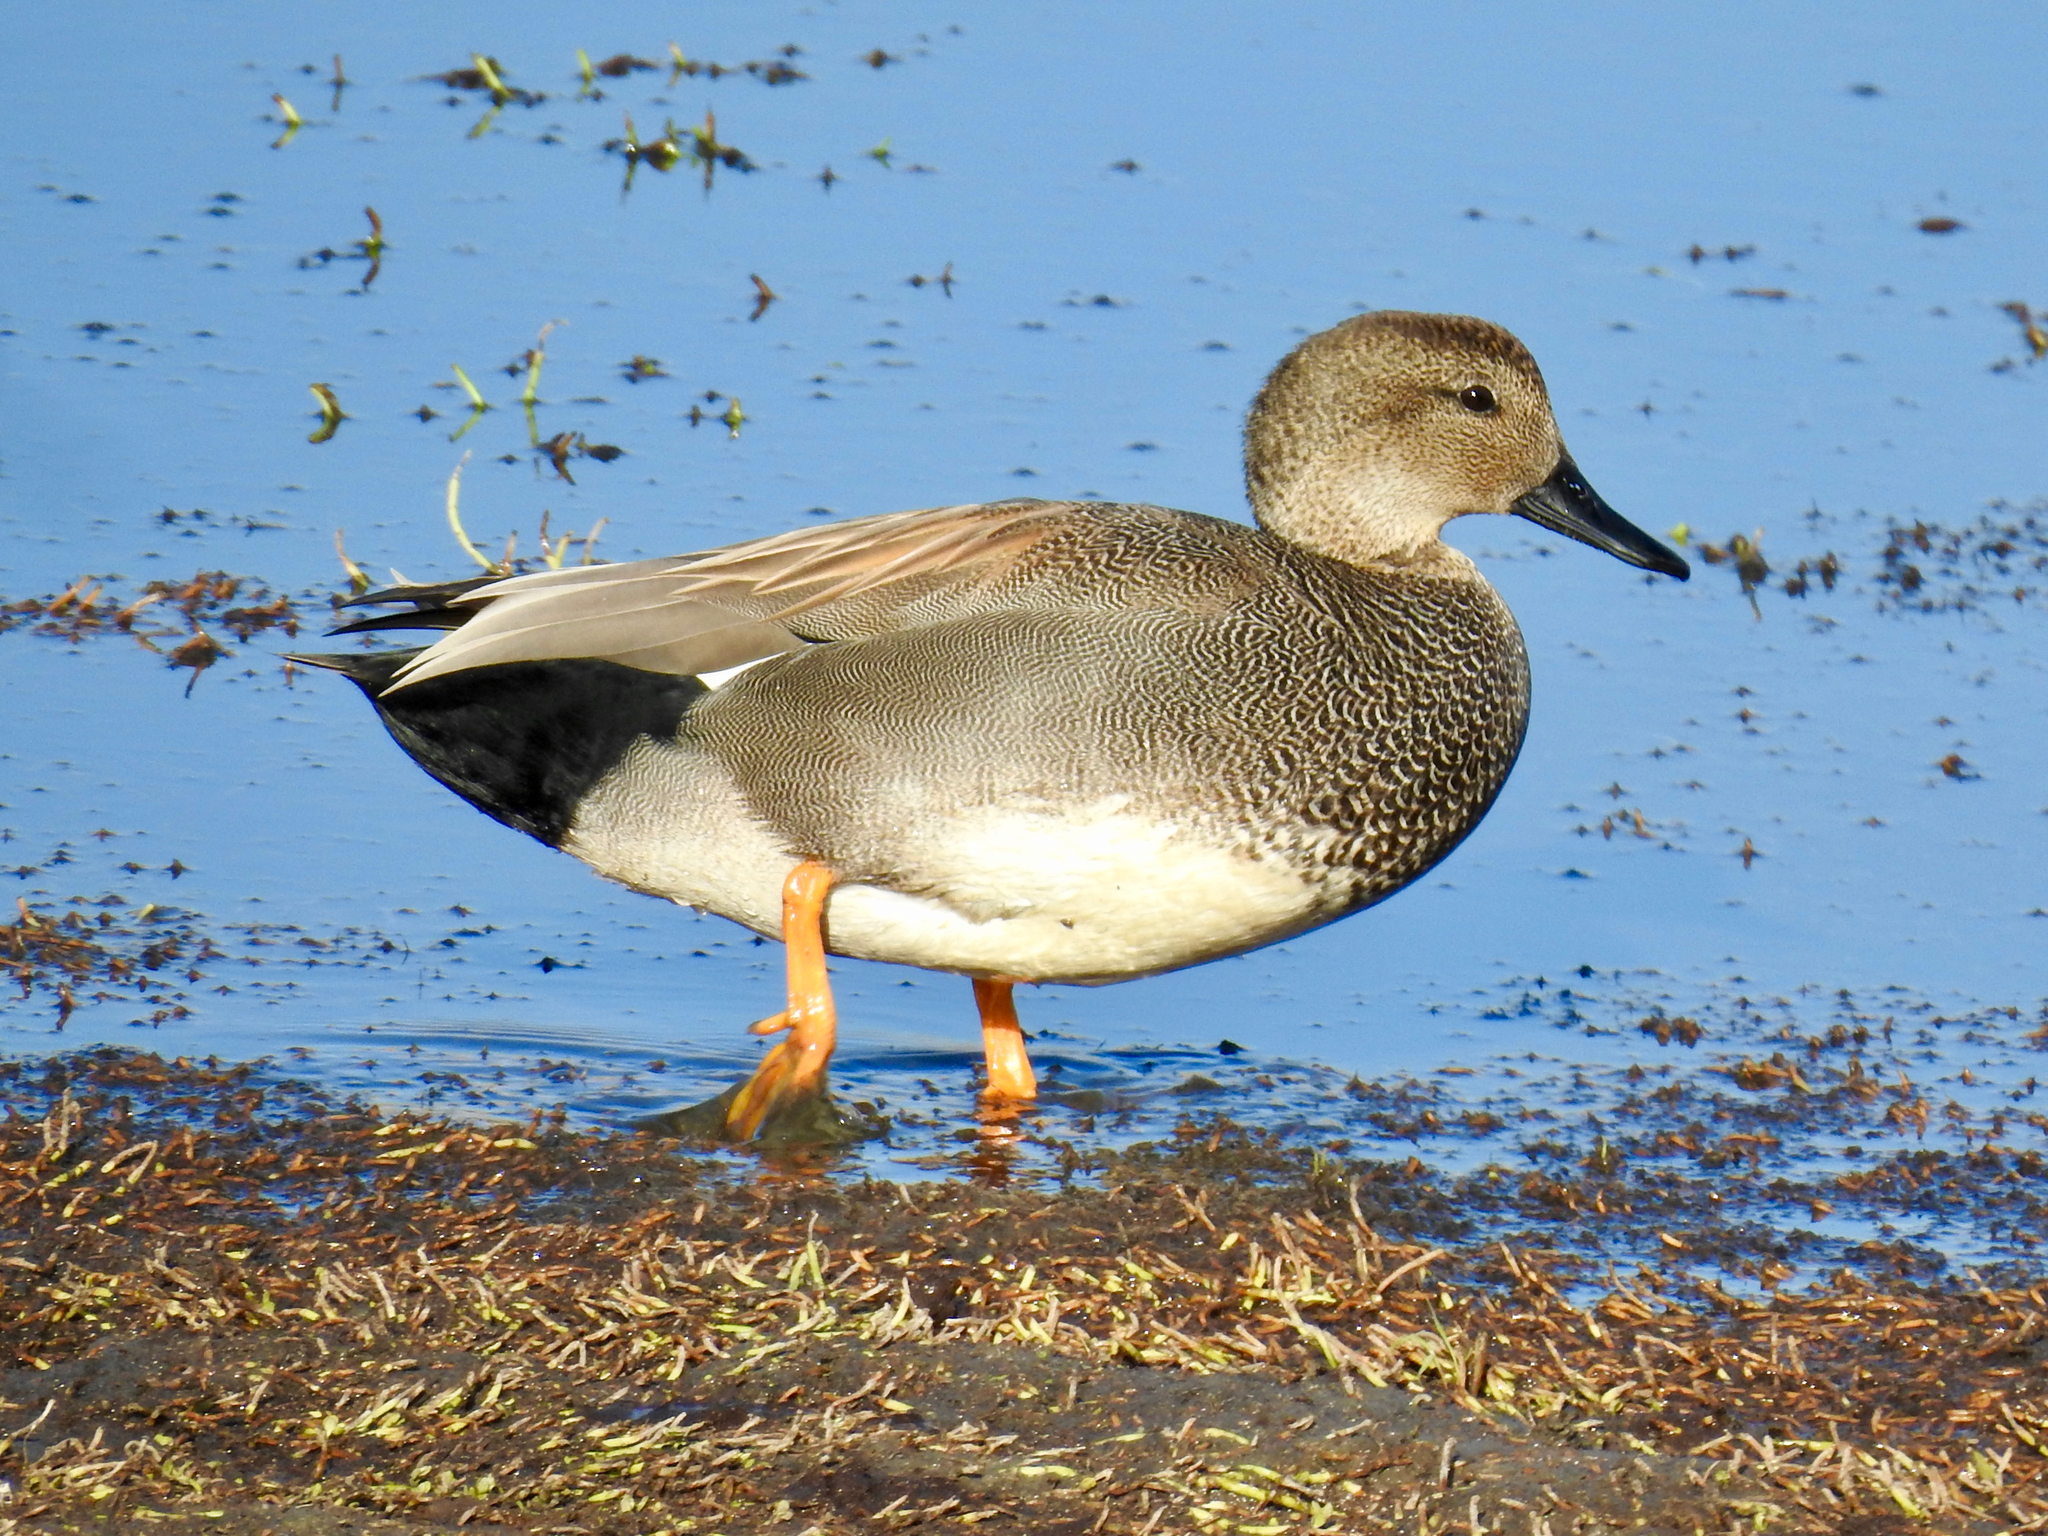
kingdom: Animalia
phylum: Chordata
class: Aves
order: Anseriformes
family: Anatidae
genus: Mareca
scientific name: Mareca strepera
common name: Gadwall
